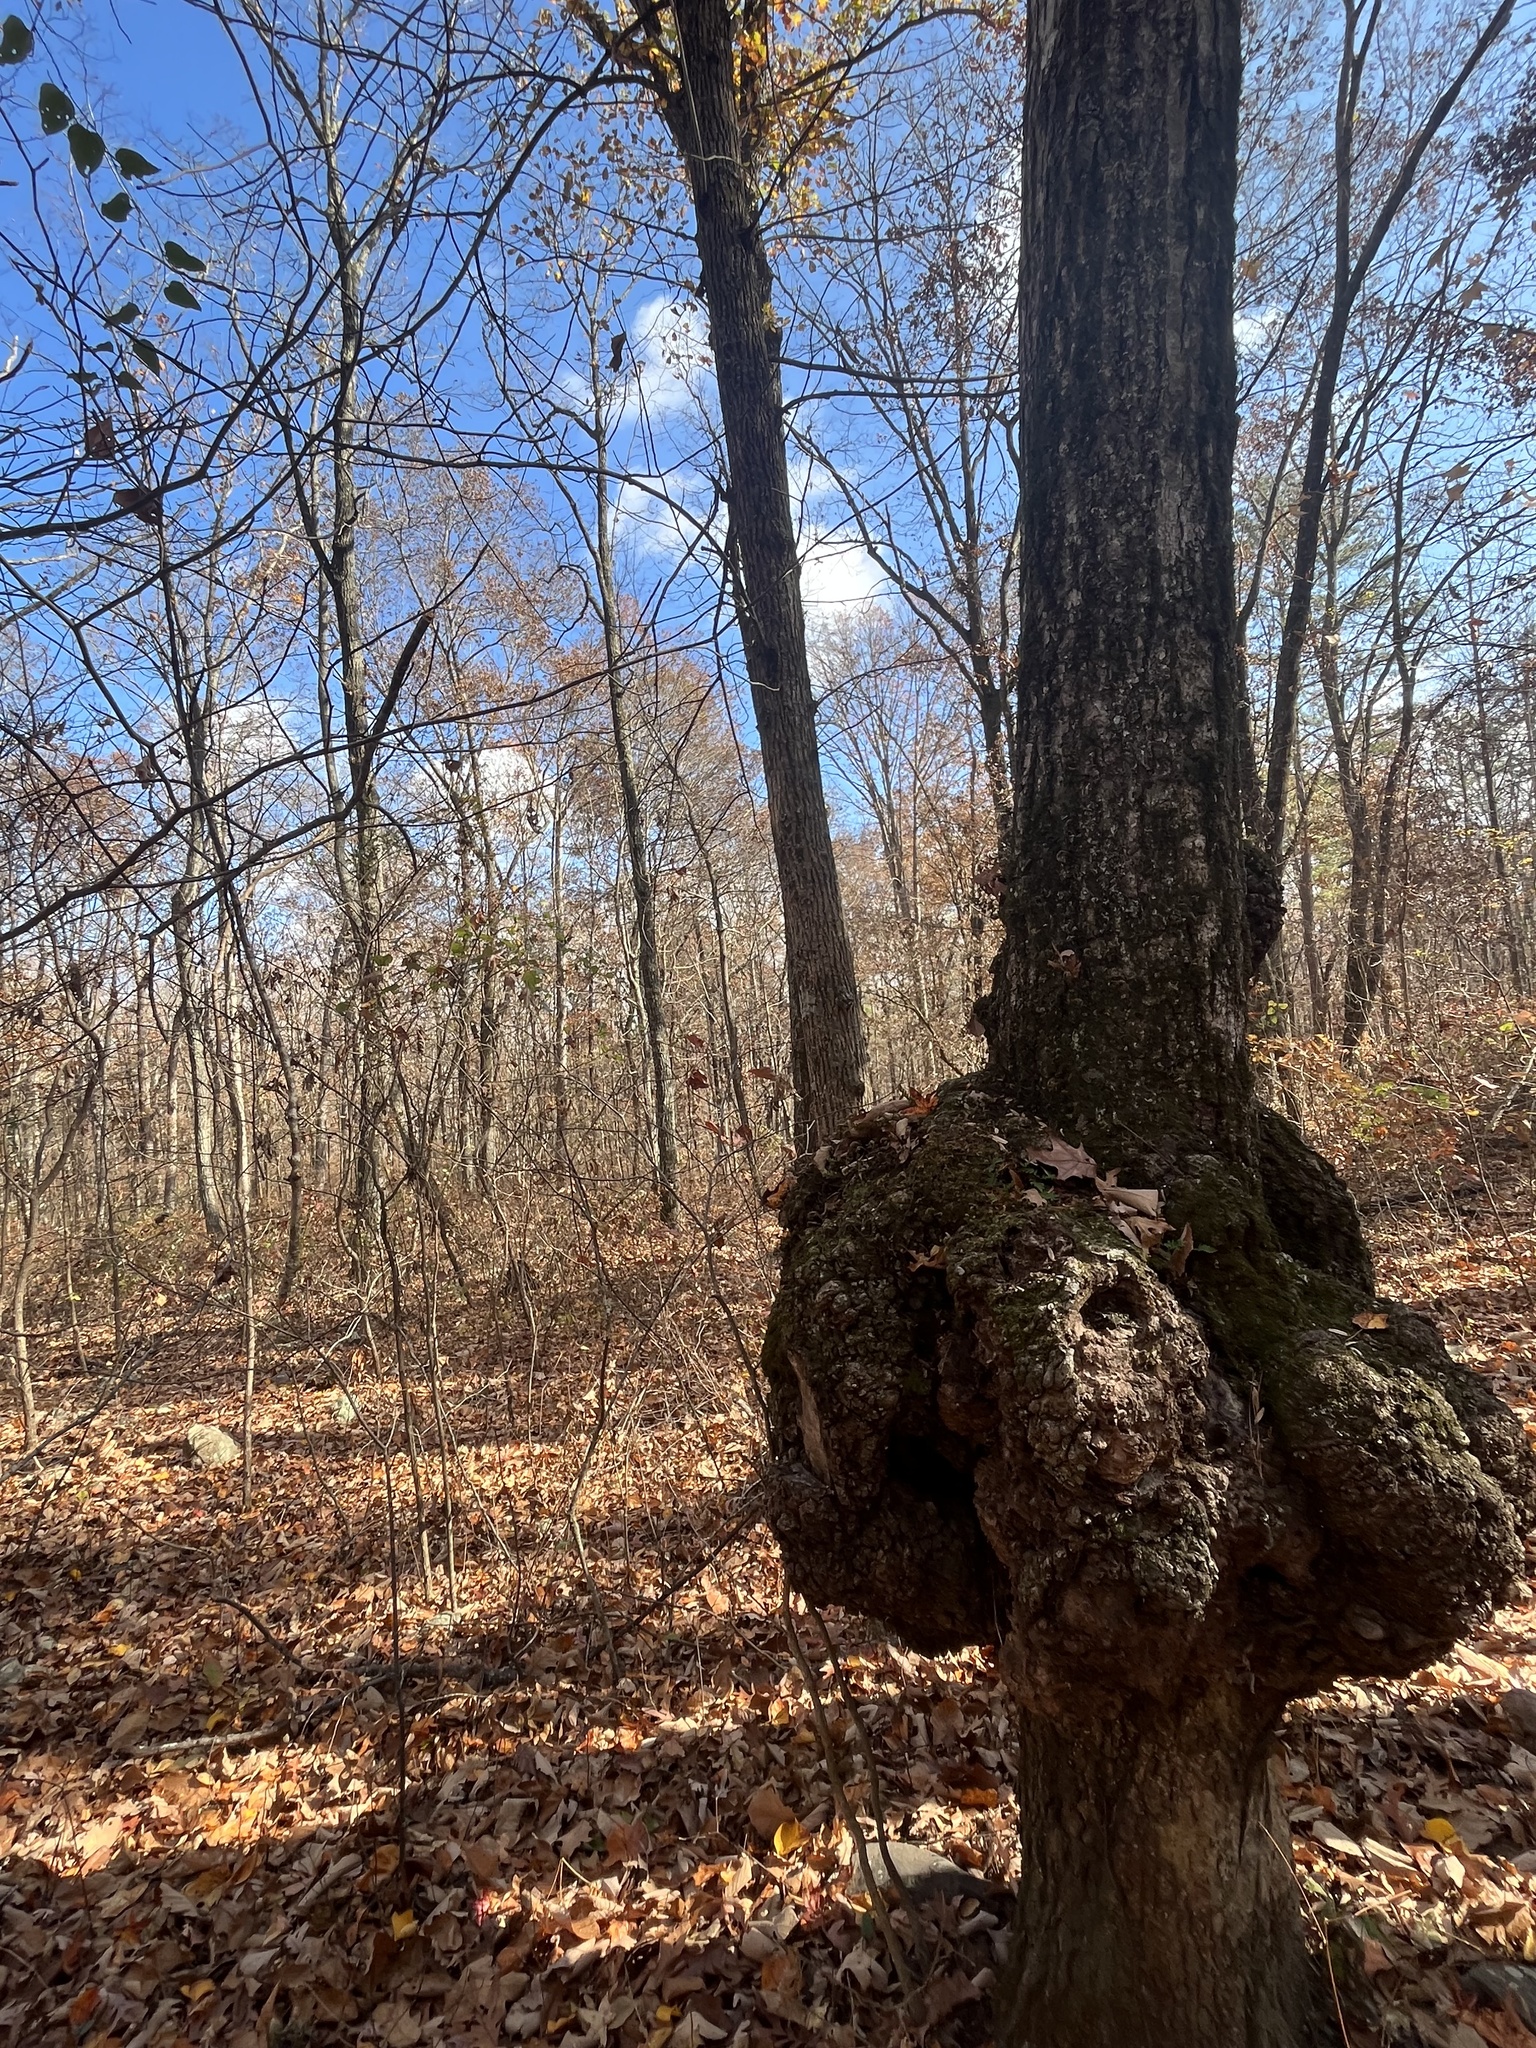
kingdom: Bacteria
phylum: Proteobacteria
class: Alphaproteobacteria
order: Rhizobiales
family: Rhizobiaceae
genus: Rhizobium
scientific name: Rhizobium Agrobacterium radiobacter
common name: Bacterial crown gall
